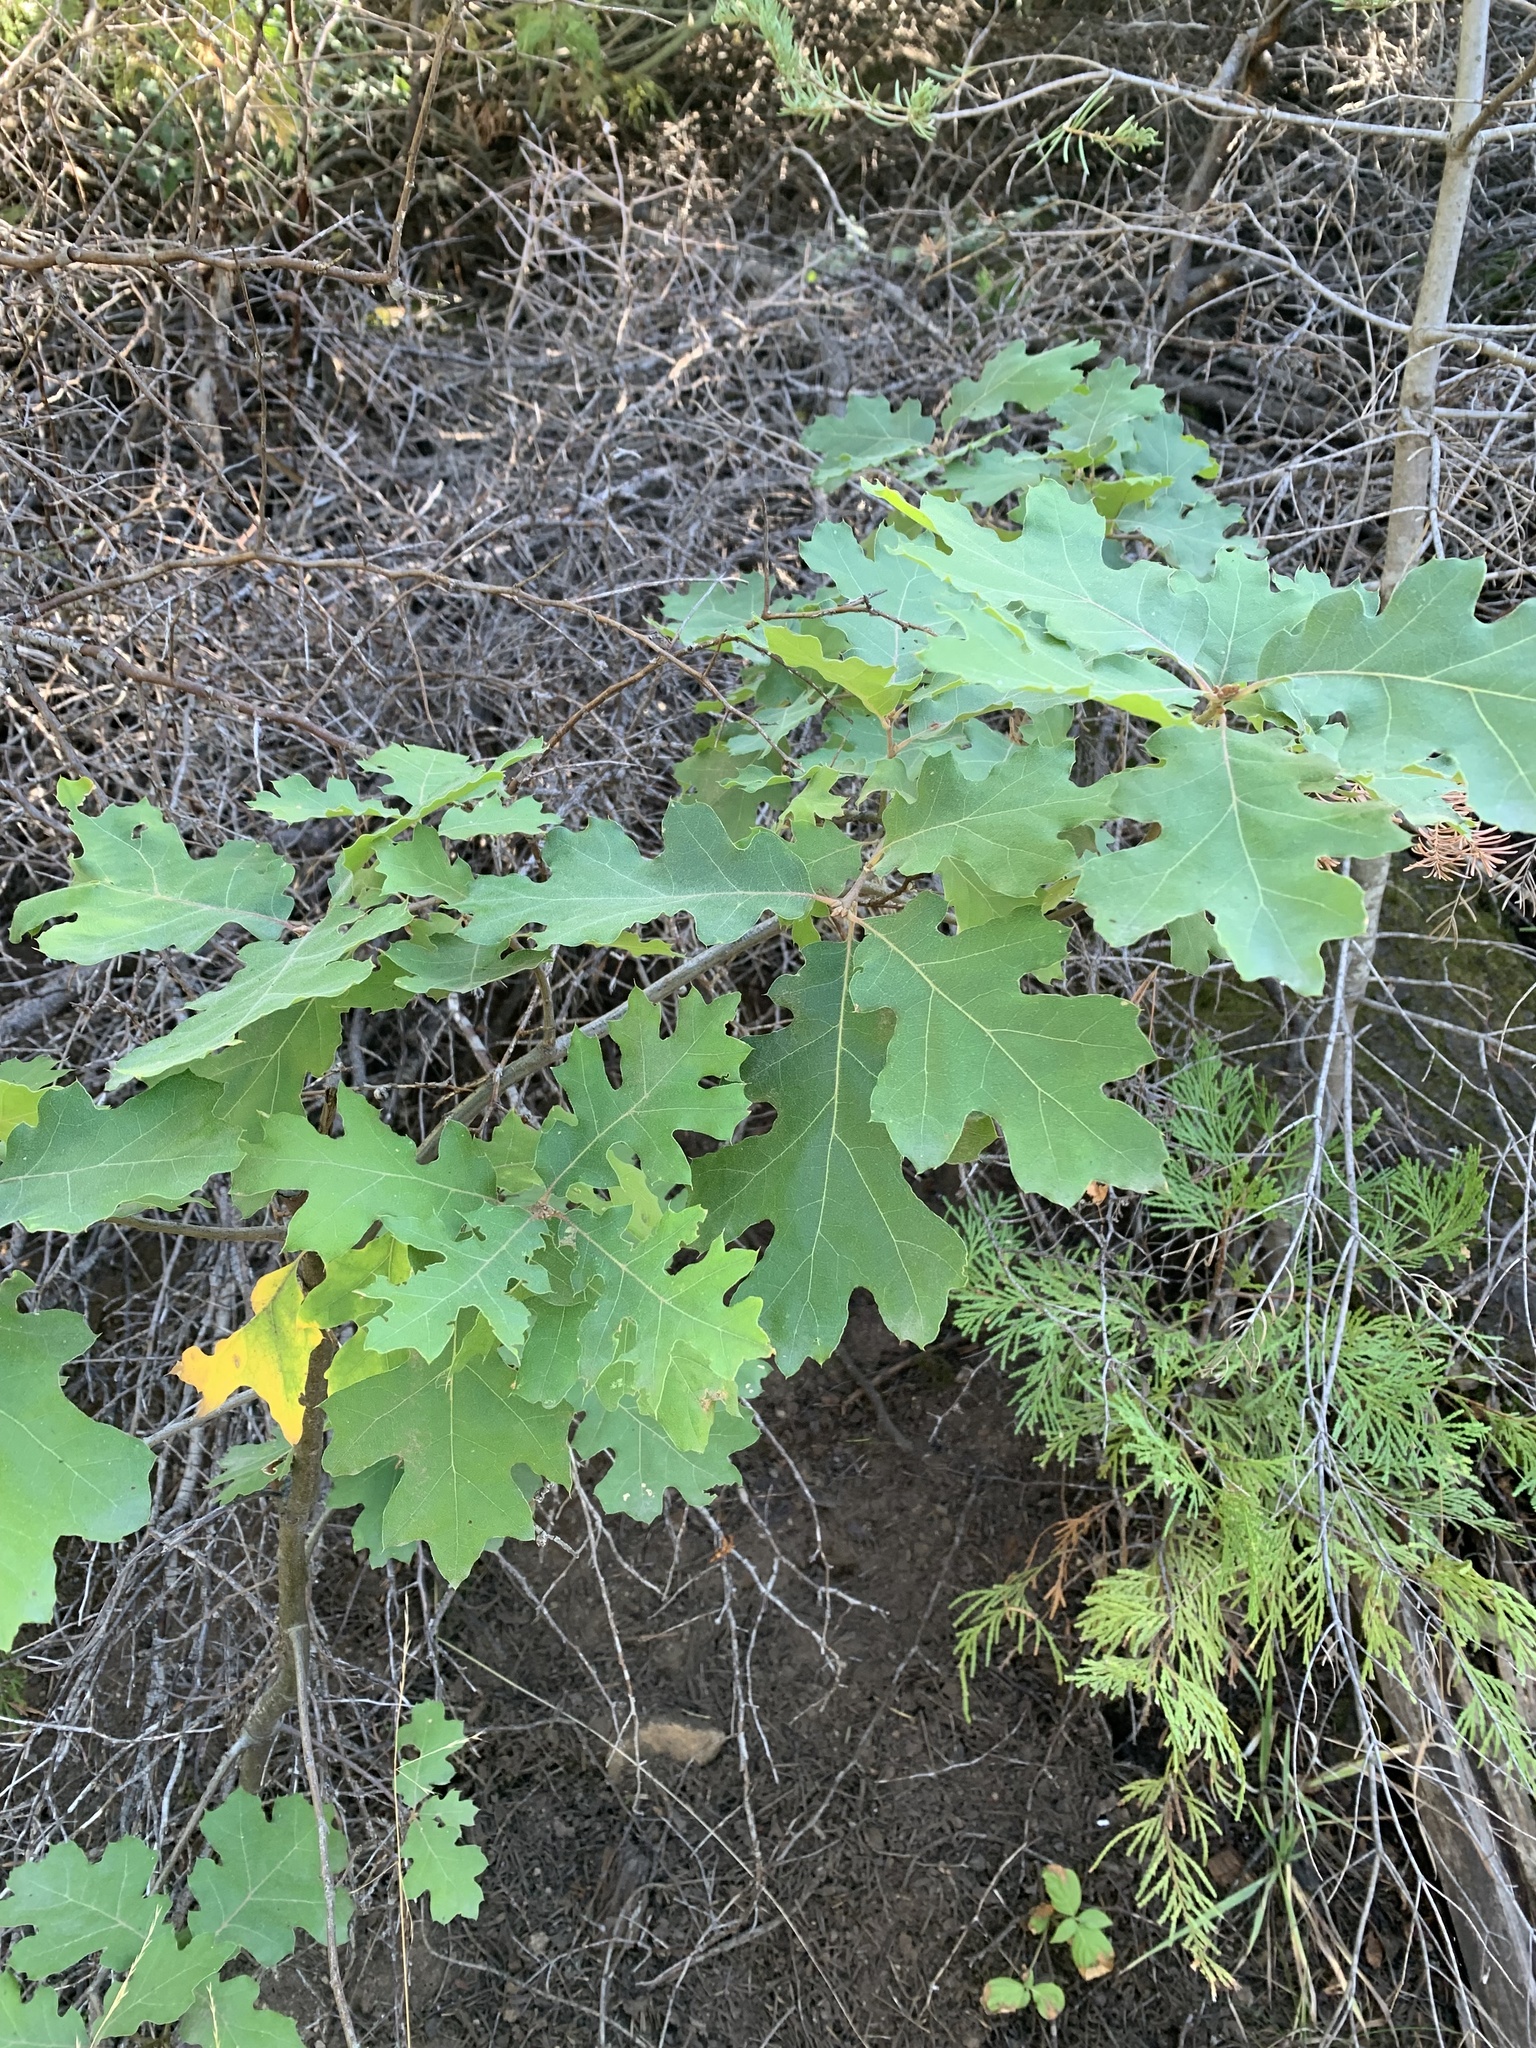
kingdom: Plantae
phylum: Tracheophyta
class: Magnoliopsida
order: Fagales
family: Fagaceae
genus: Quercus
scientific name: Quercus kelloggii
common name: California black oak
